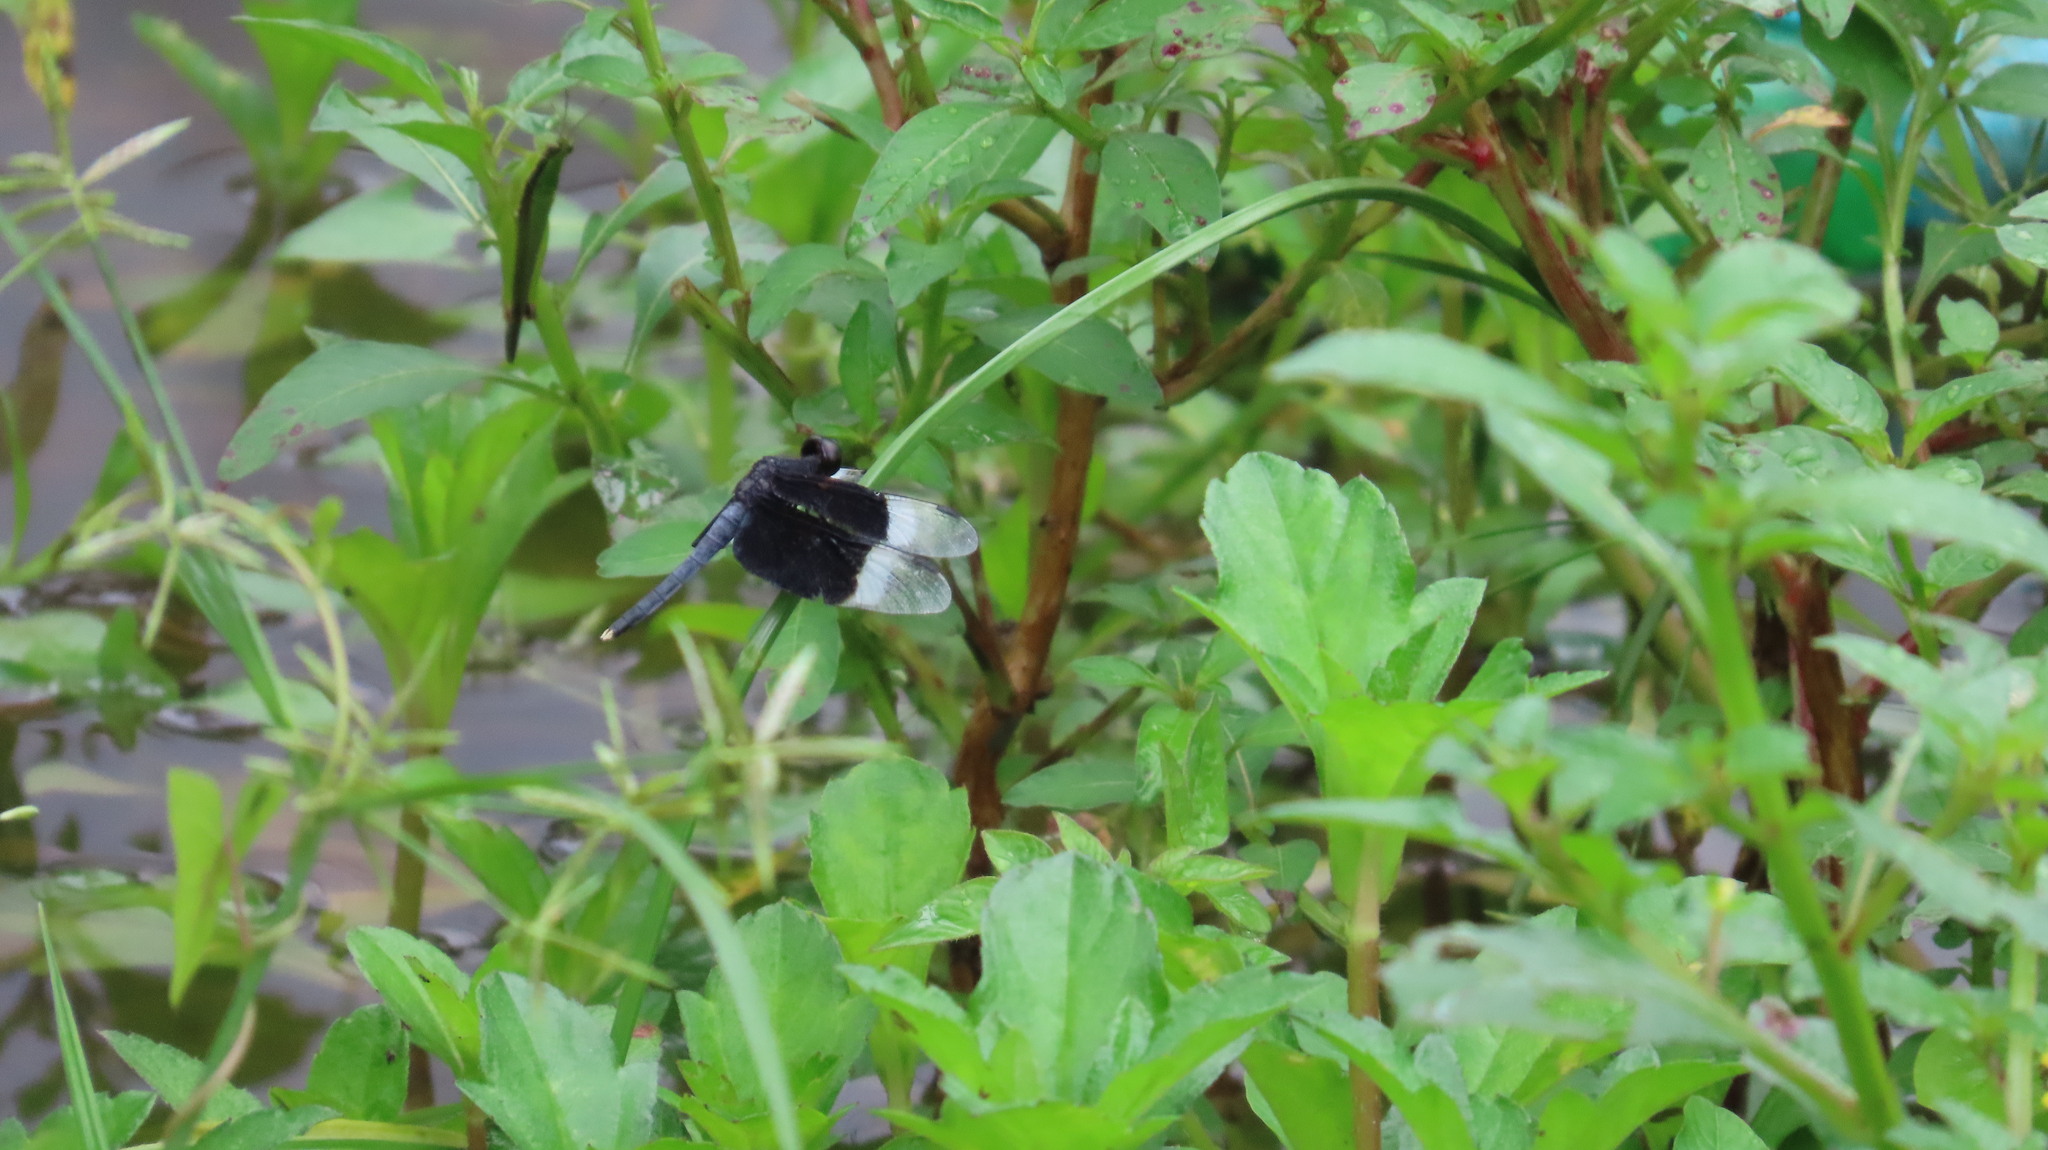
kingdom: Animalia
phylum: Arthropoda
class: Insecta
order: Odonata
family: Libellulidae
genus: Neurothemis
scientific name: Neurothemis tullia
